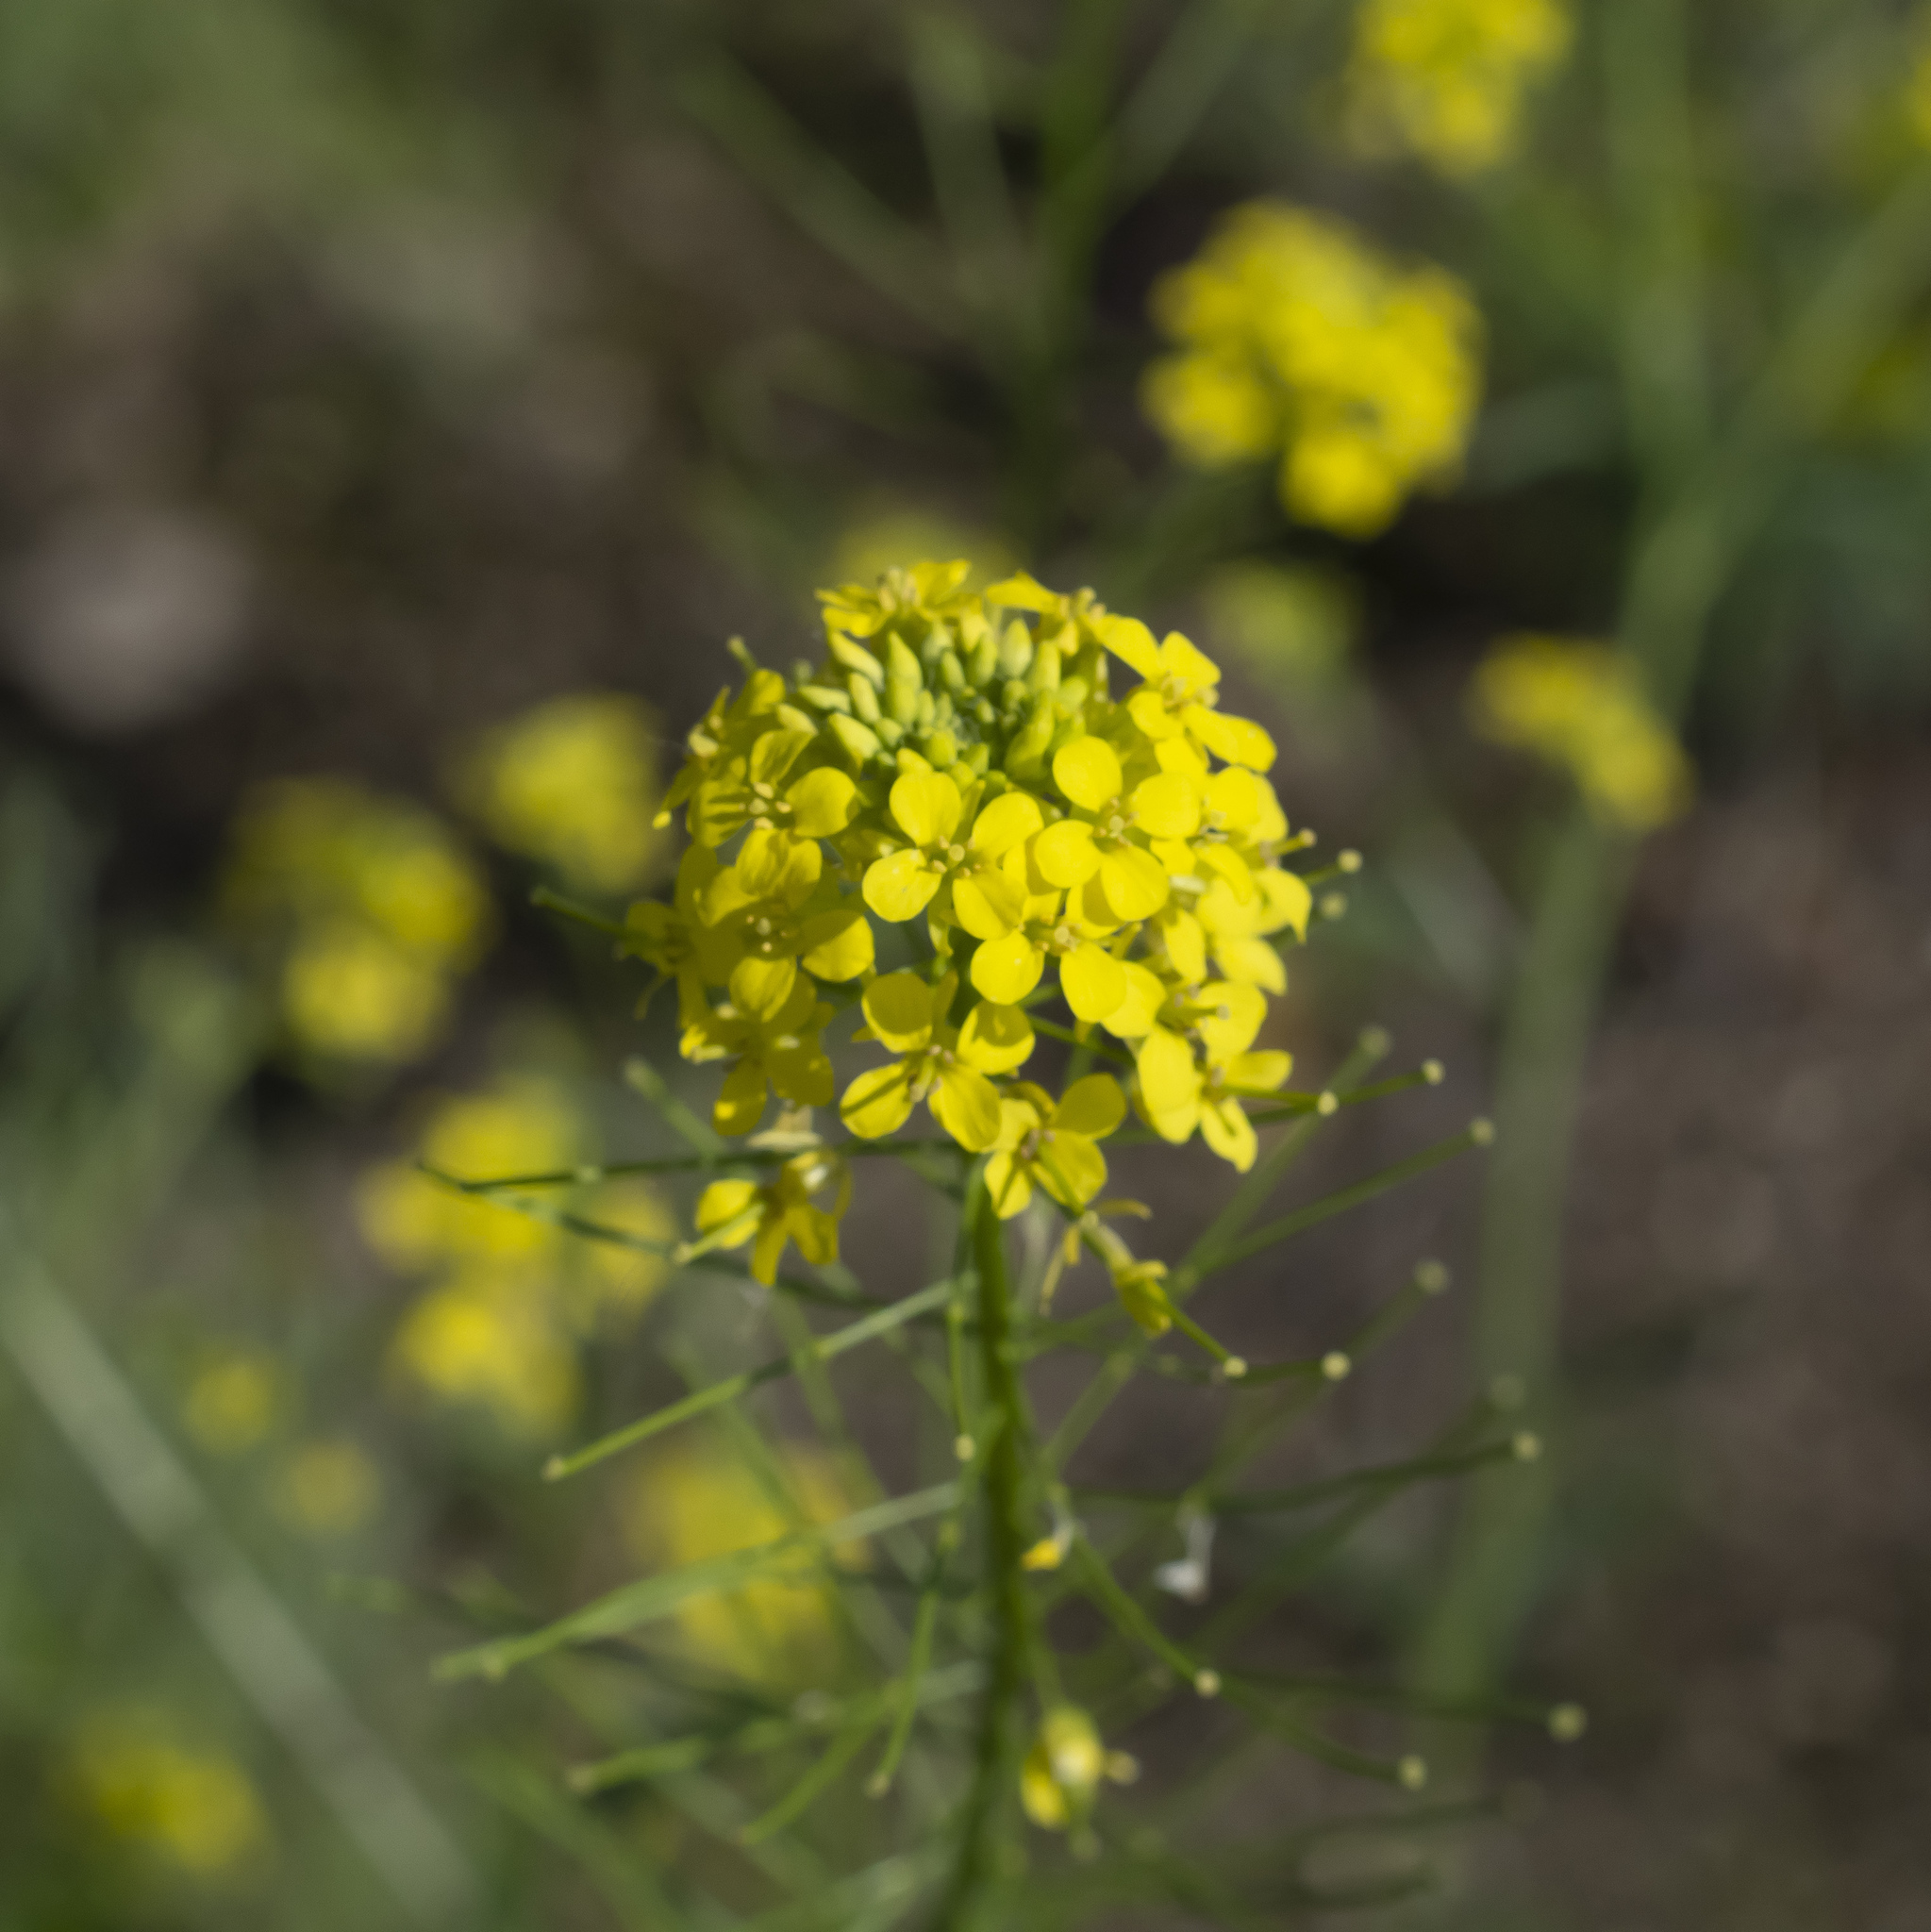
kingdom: Plantae
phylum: Tracheophyta
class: Magnoliopsida
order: Brassicales
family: Brassicaceae
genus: Sisymbrium
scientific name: Sisymbrium loeselii
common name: False london-rocket
